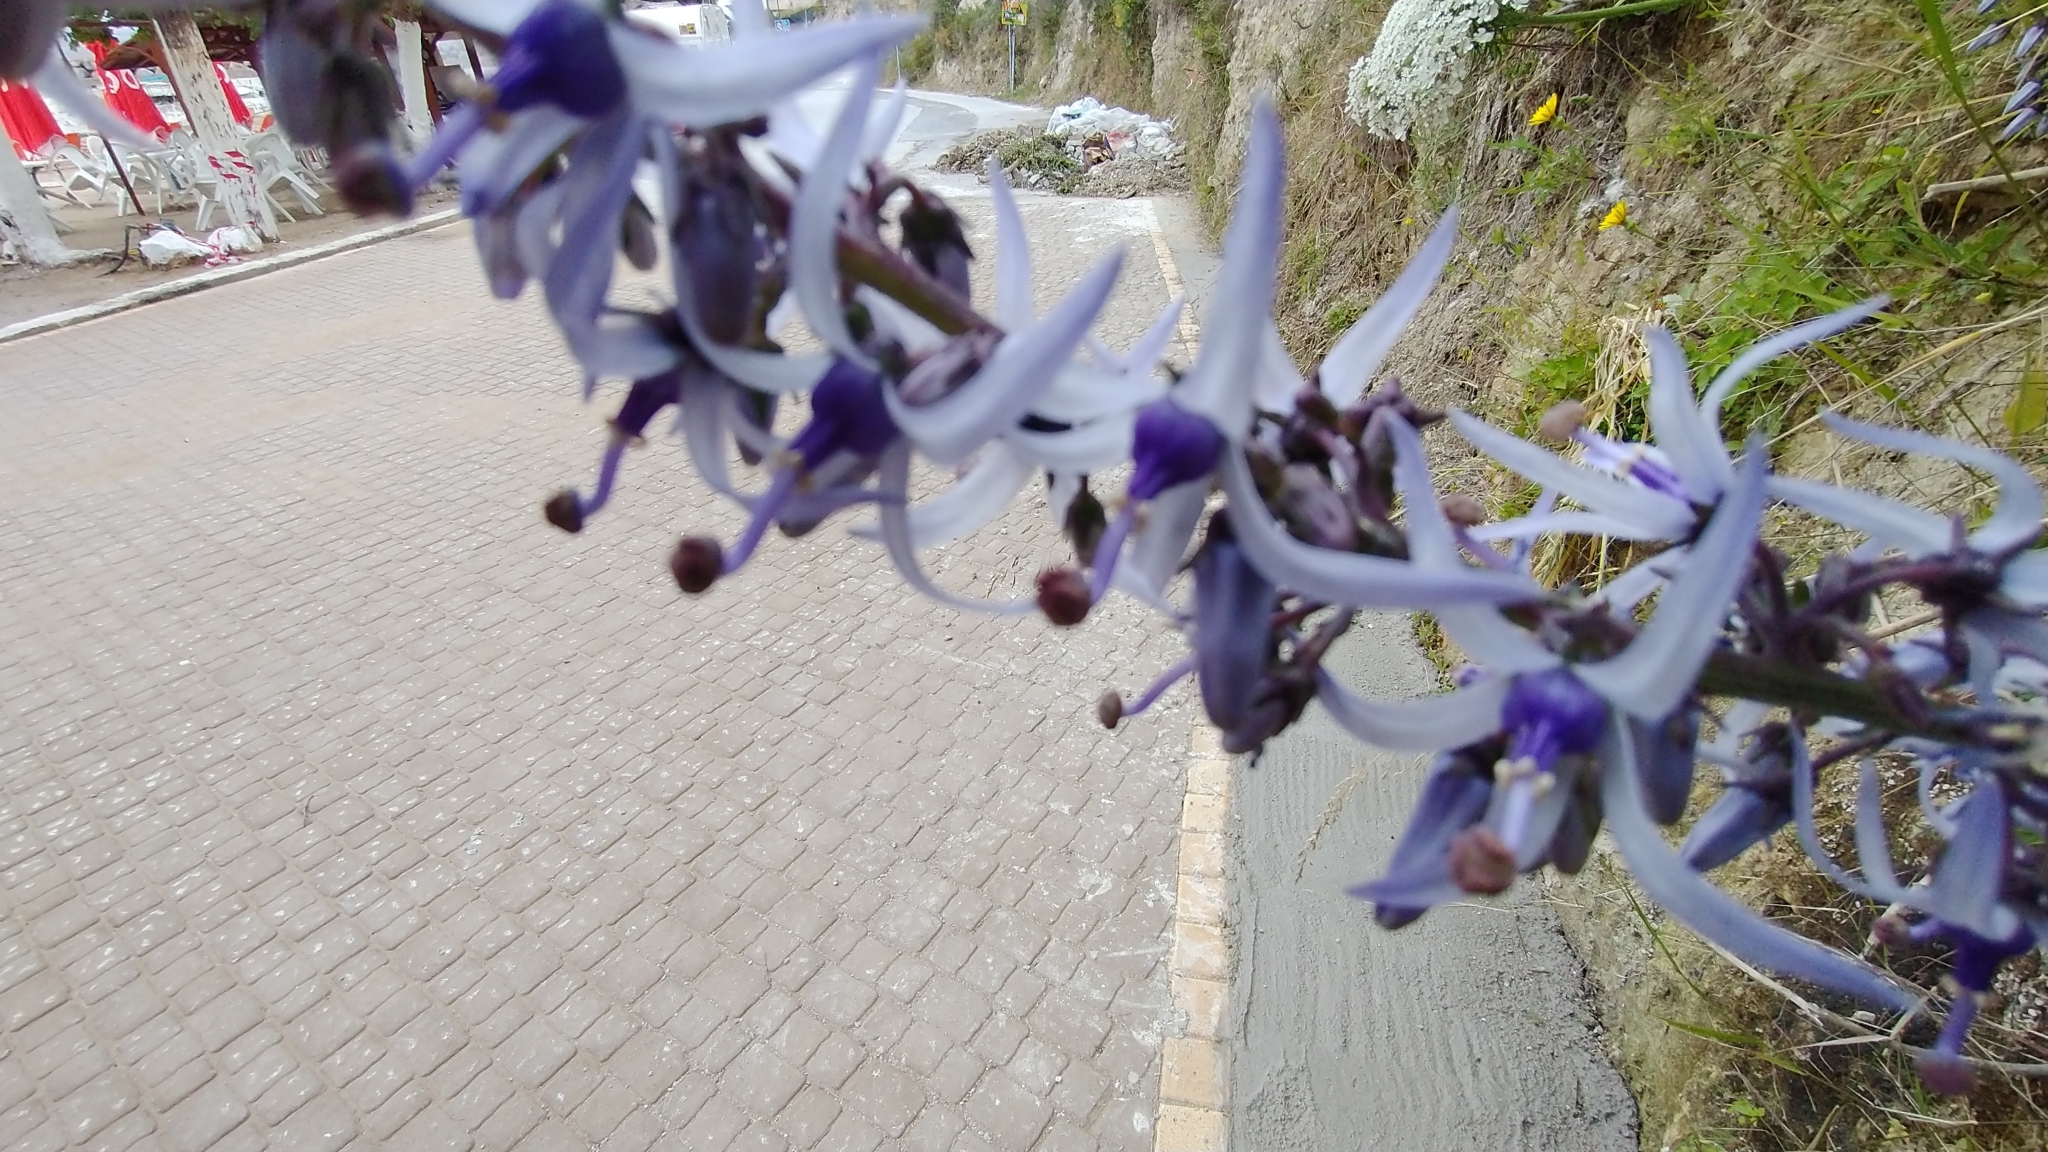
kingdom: Plantae
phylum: Tracheophyta
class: Magnoliopsida
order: Asterales
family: Campanulaceae
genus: Petromarula
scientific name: Petromarula pinnata
